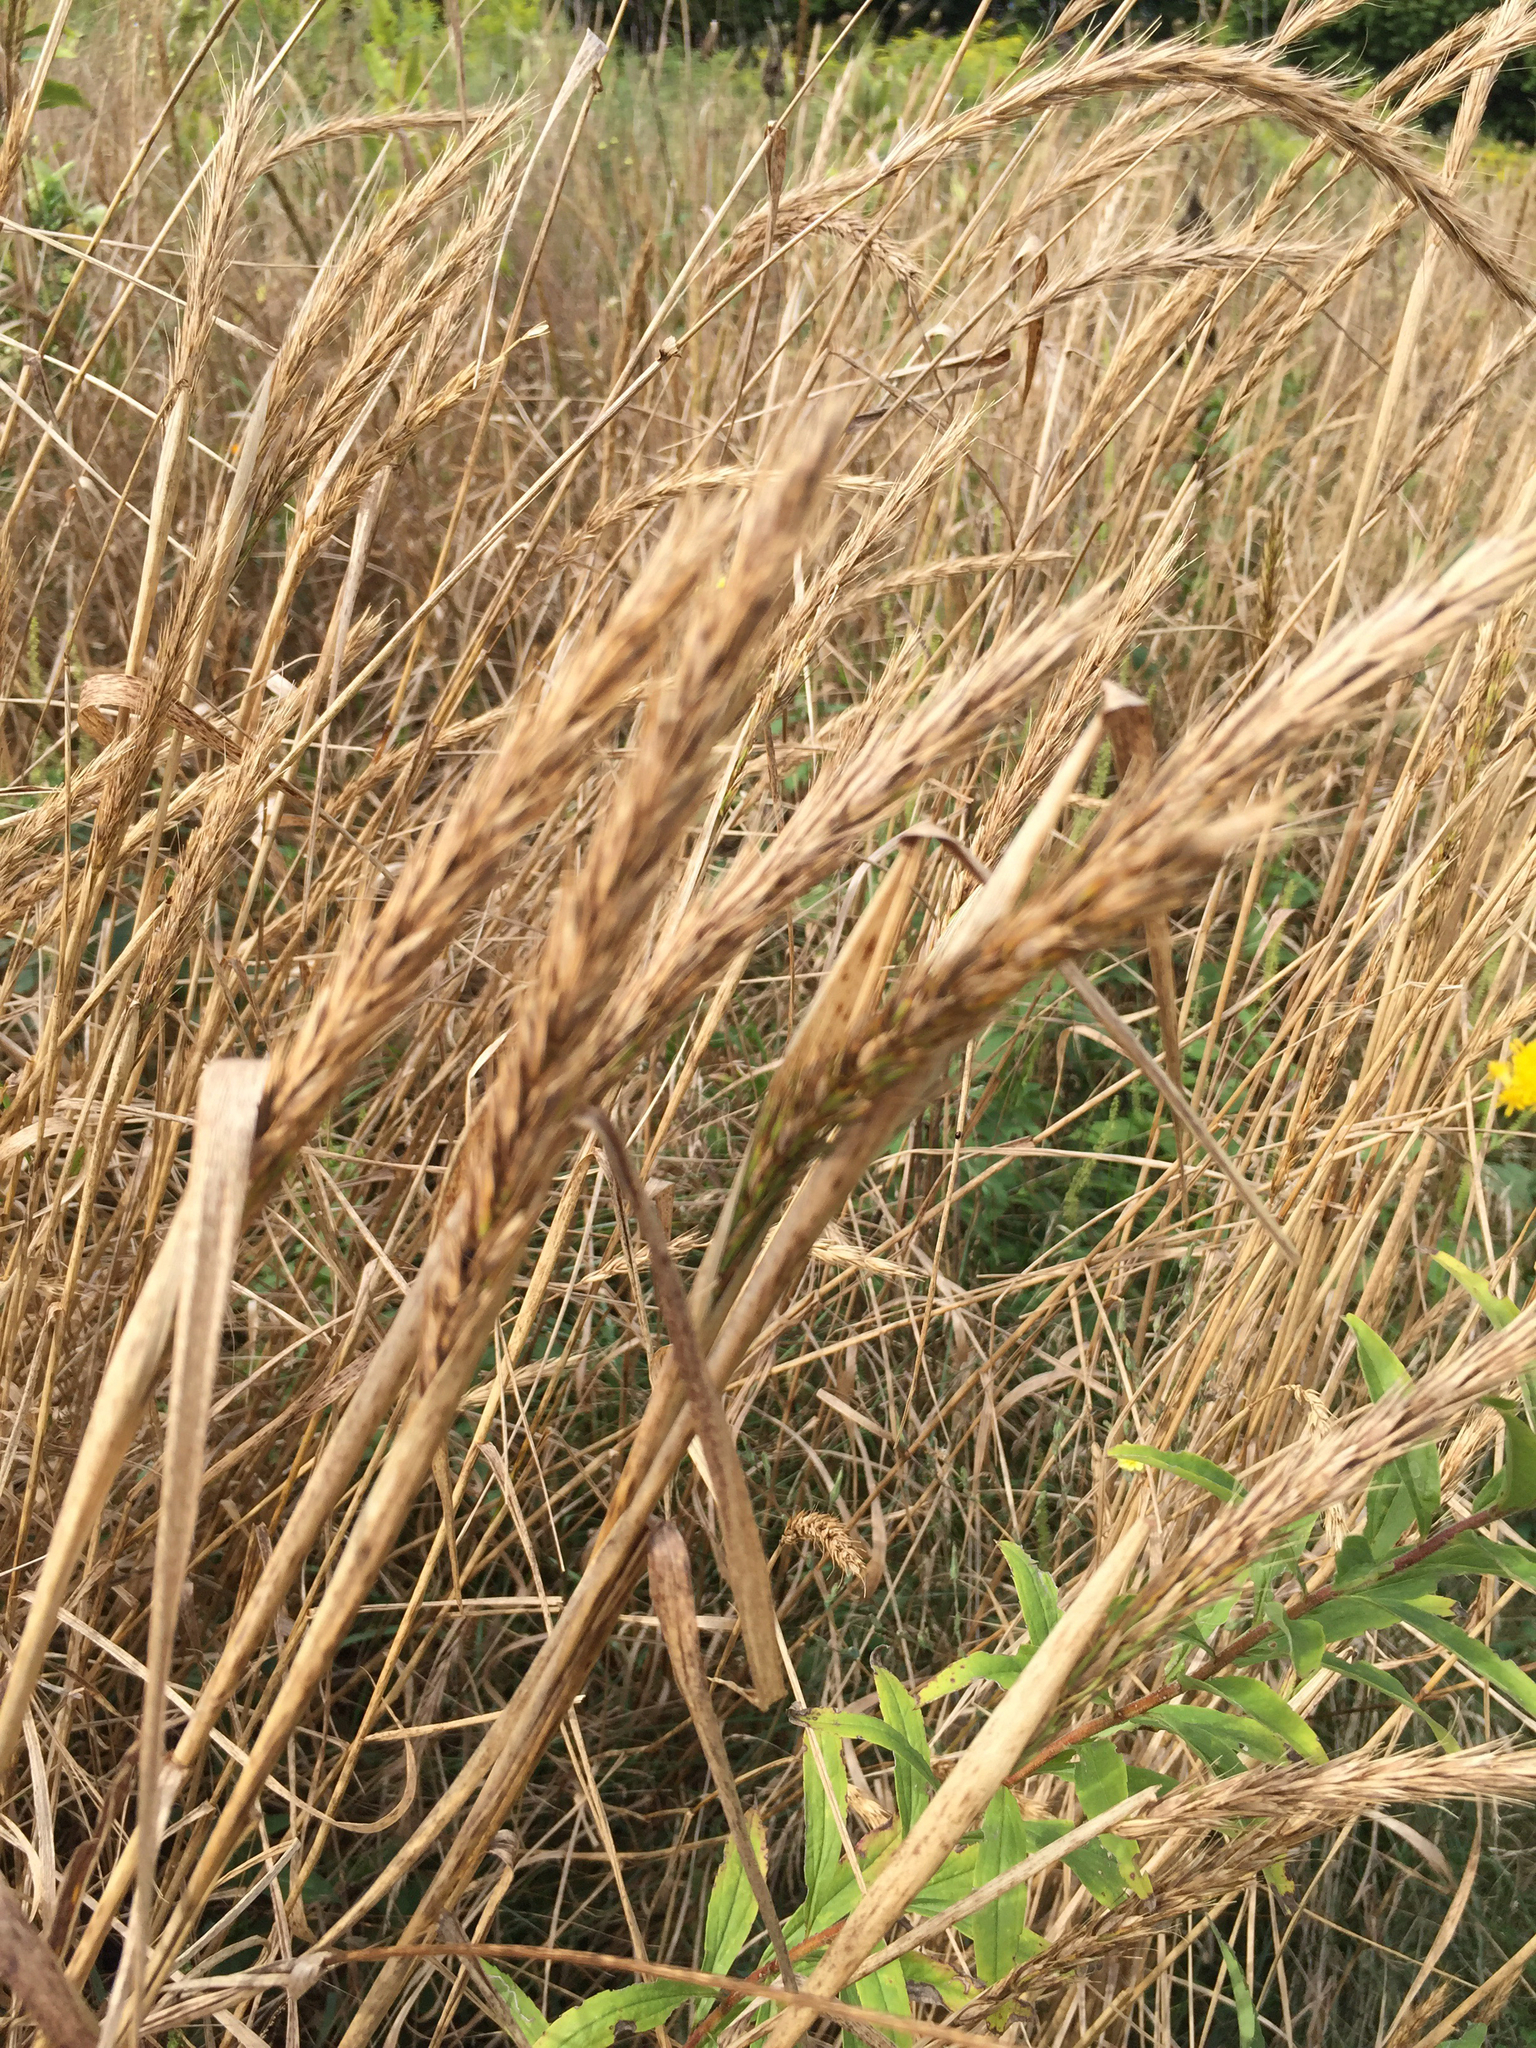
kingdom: Plantae
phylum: Tracheophyta
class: Liliopsida
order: Poales
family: Poaceae
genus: Elymus
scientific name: Elymus virginicus
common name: Common eastern wildrye
